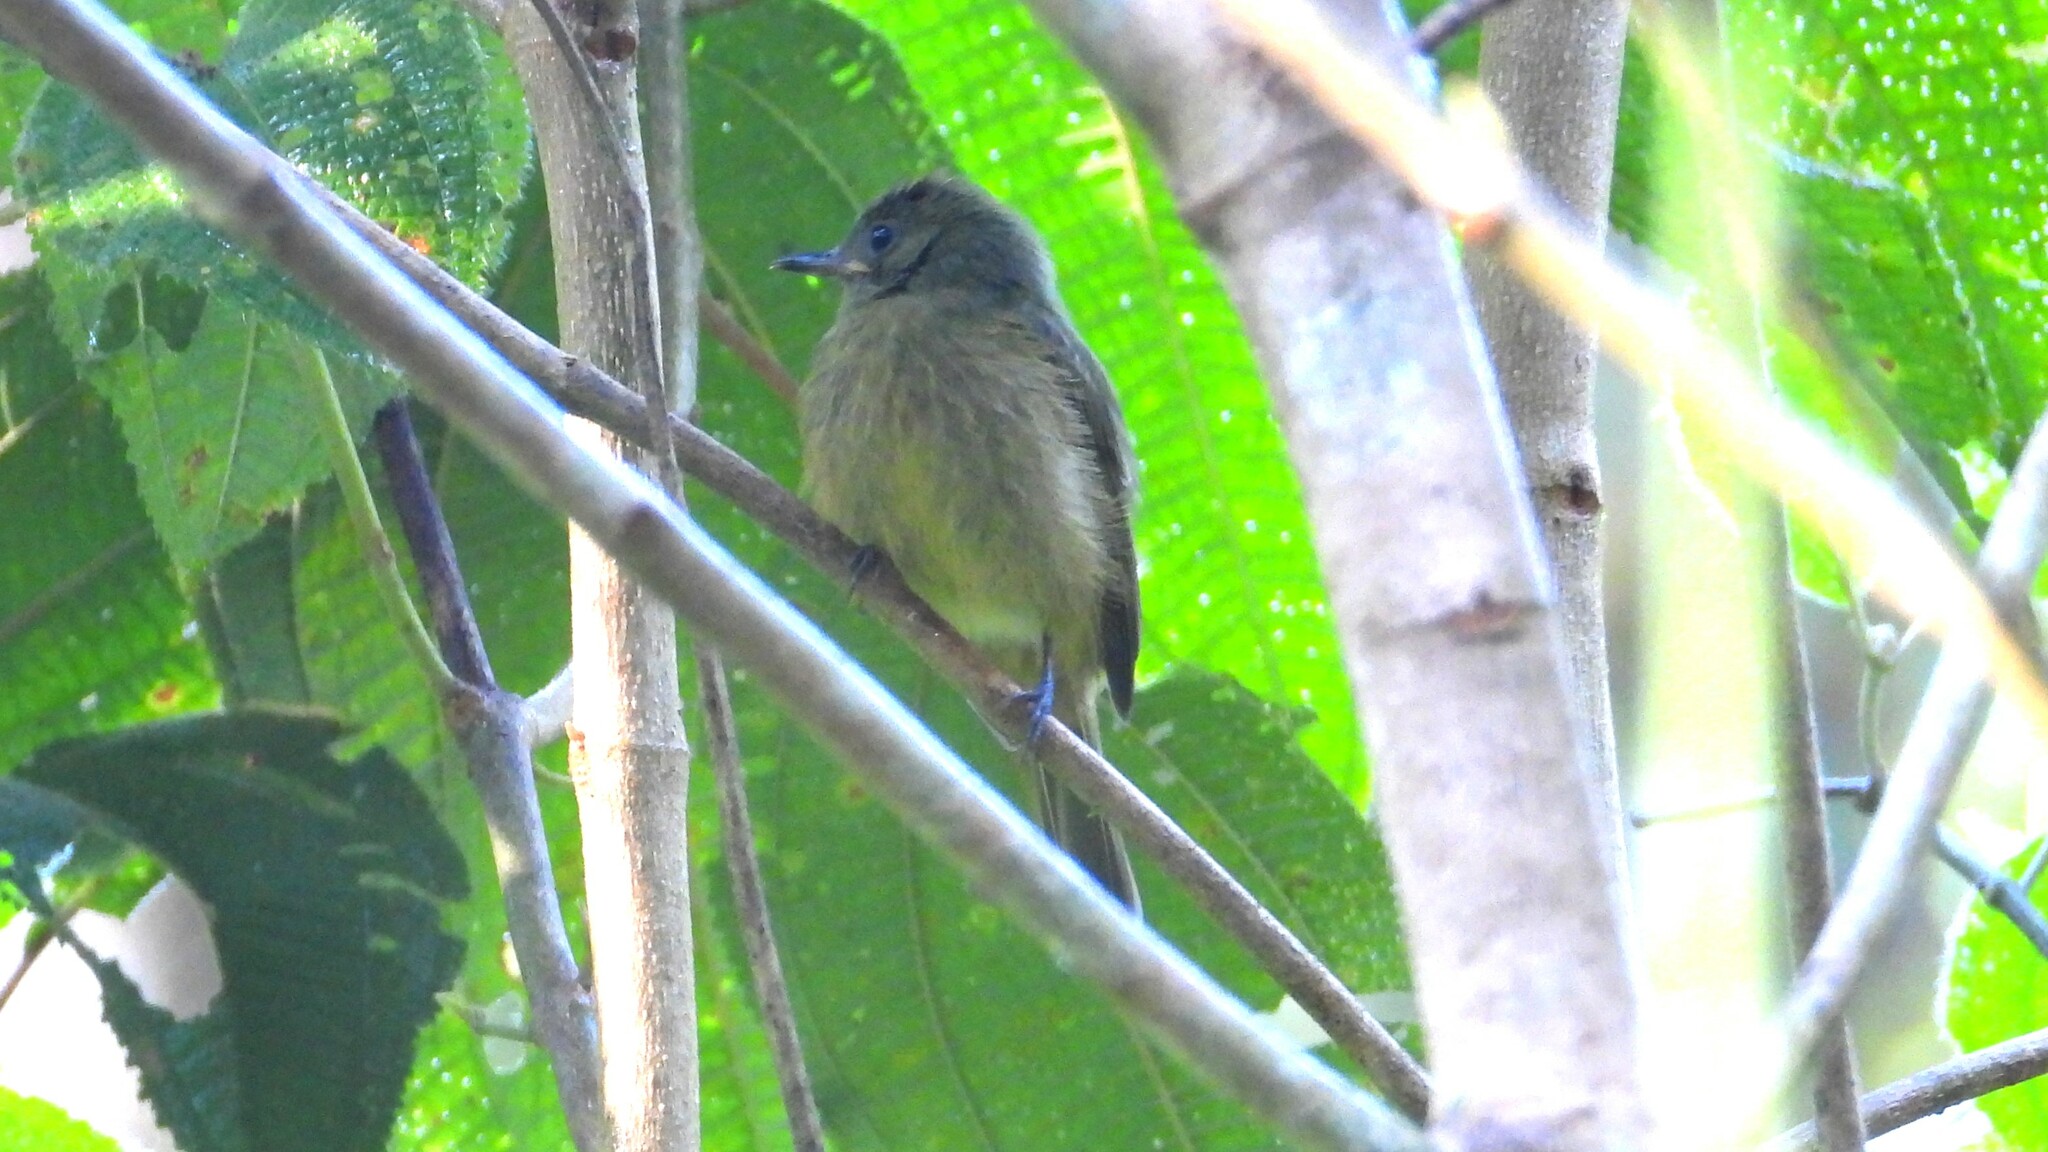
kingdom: Animalia
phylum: Chordata
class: Aves
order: Passeriformes
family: Tyrannidae
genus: Mionectes
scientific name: Mionectes oleagineus
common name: Ochre-bellied flycatcher
